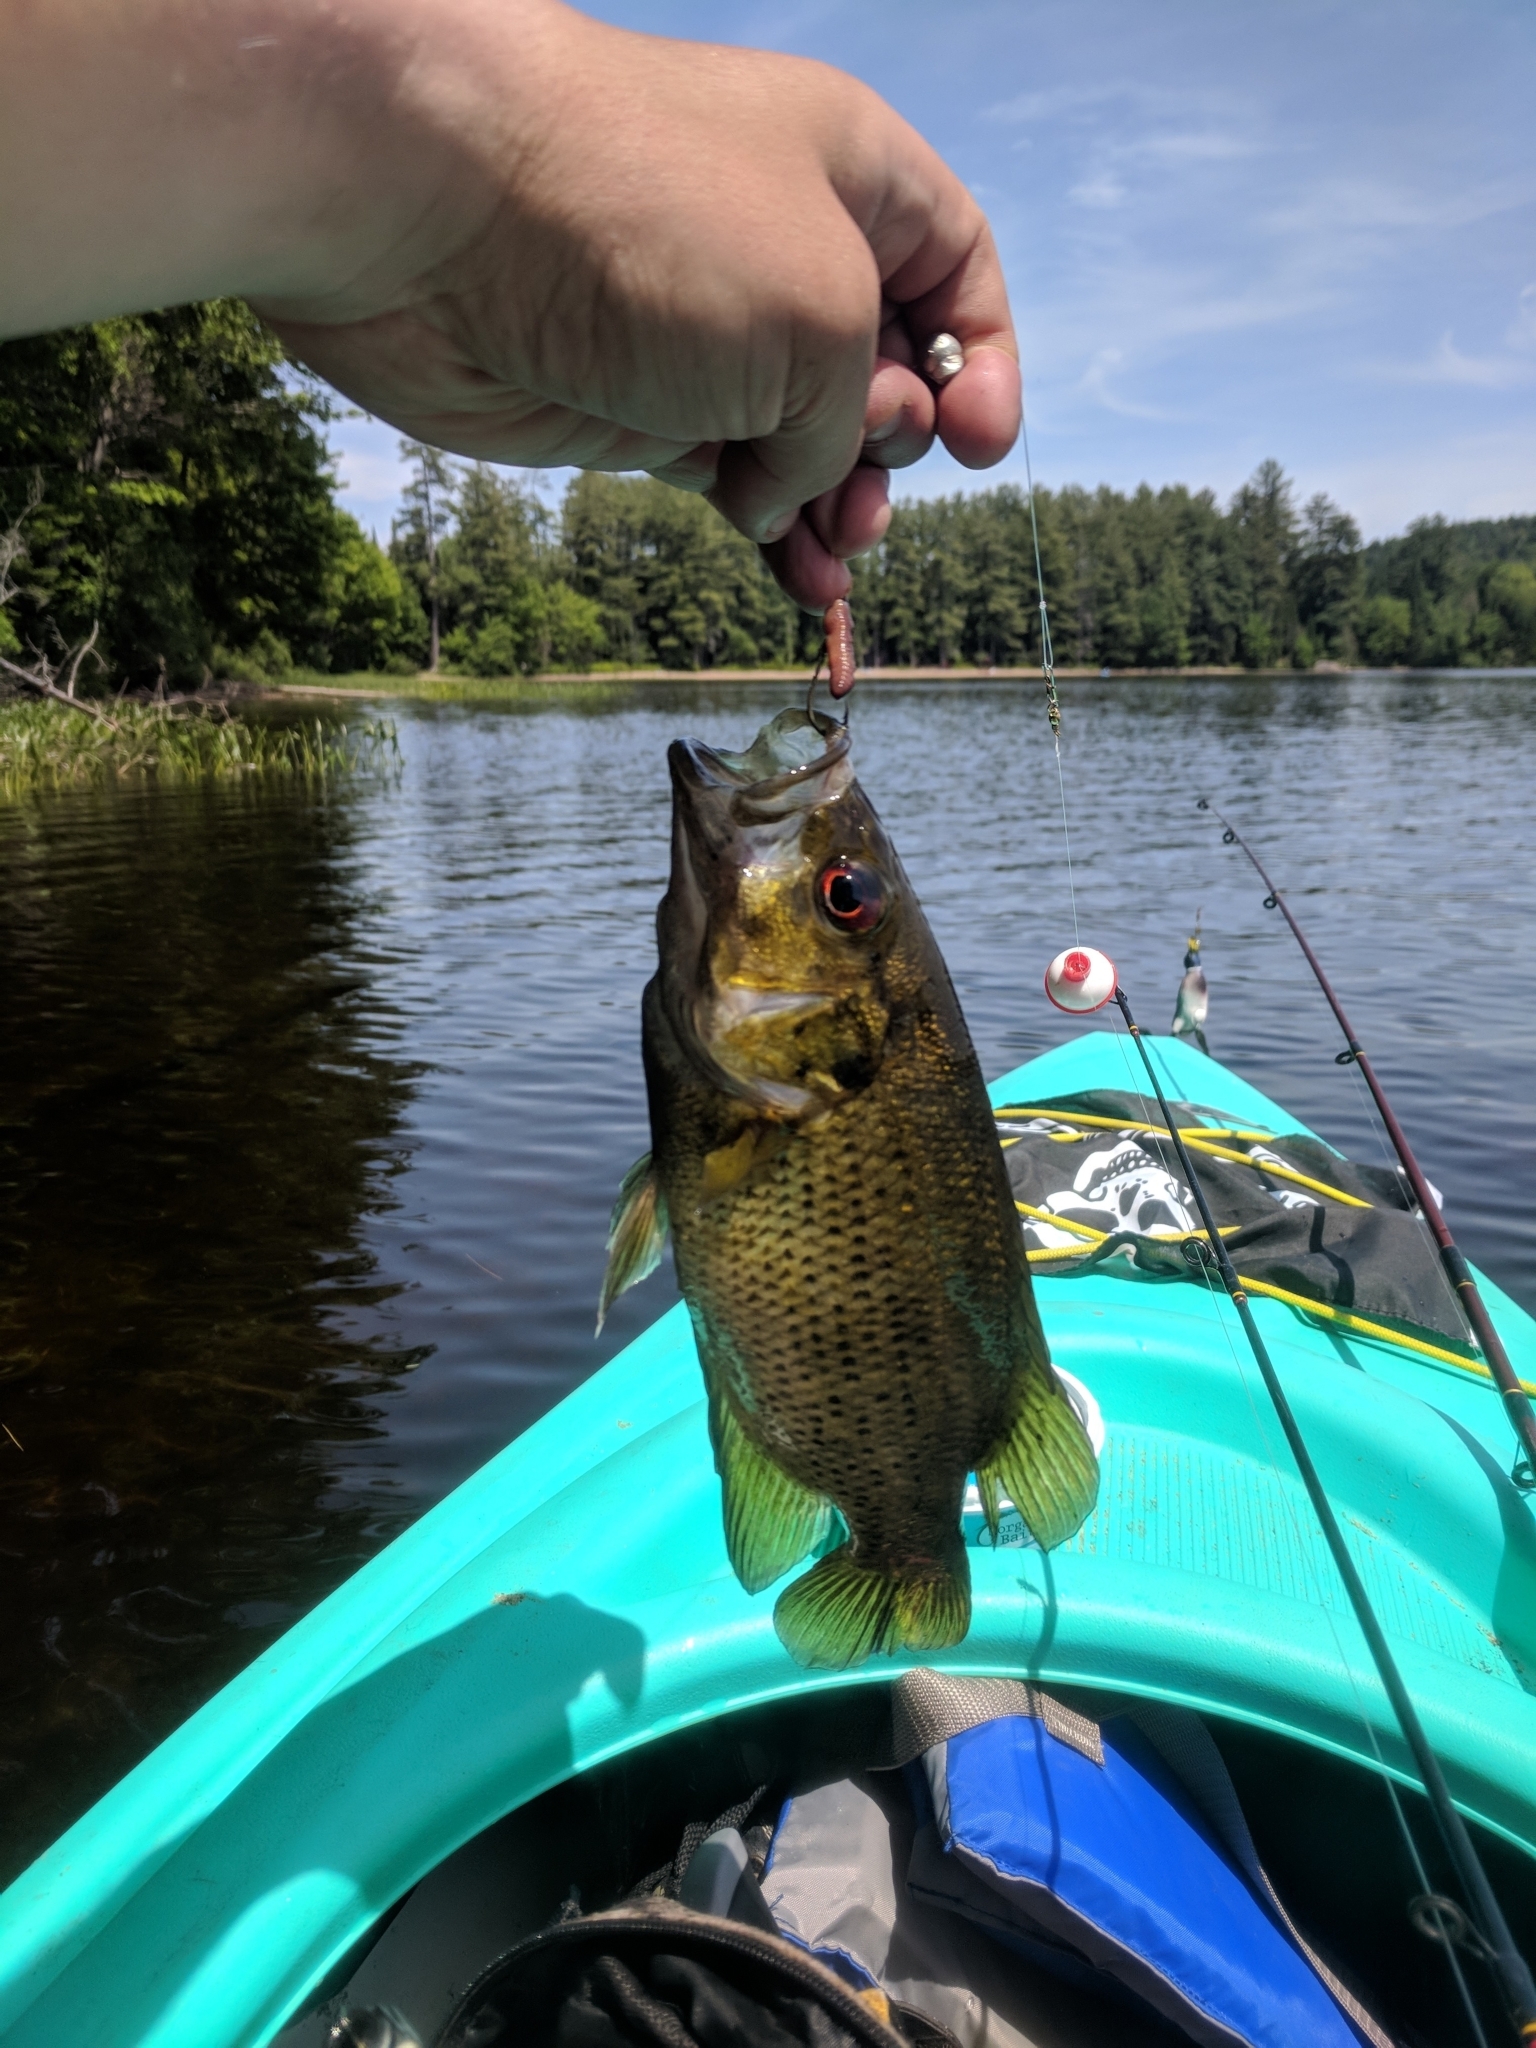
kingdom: Animalia
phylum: Chordata
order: Perciformes
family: Centrarchidae
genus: Ambloplites
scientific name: Ambloplites rupestris
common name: Rock bass
